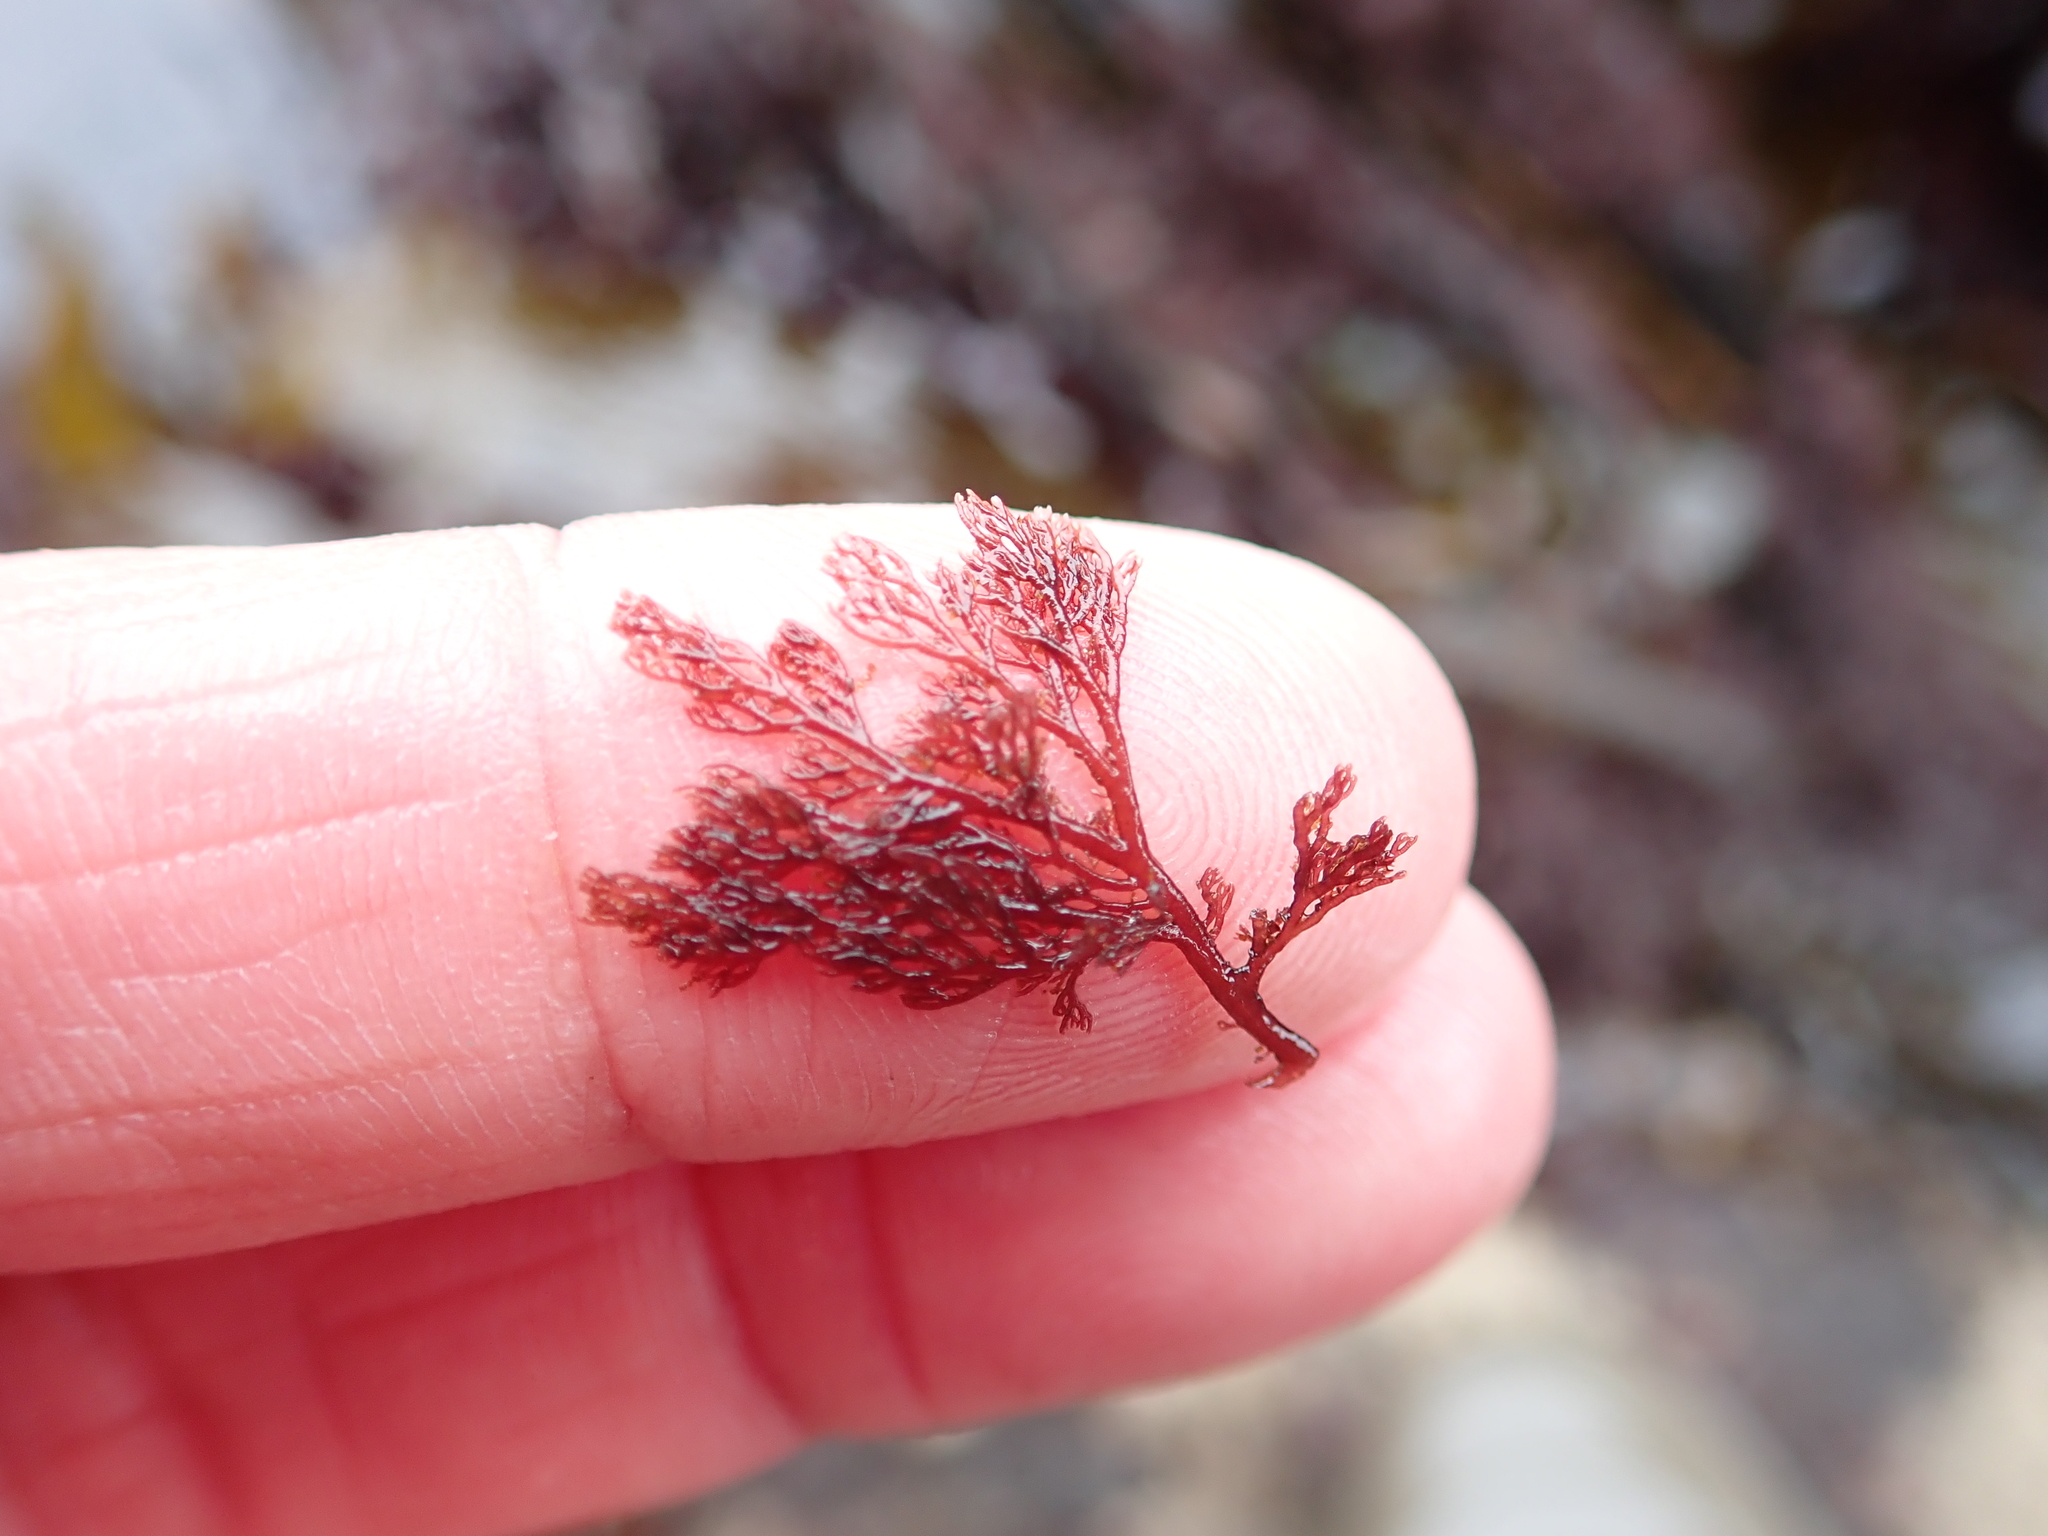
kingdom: Plantae
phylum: Rhodophyta
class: Florideophyceae
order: Ceramiales
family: Ceramiaceae
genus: Microcladia
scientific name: Microcladia coulteri
